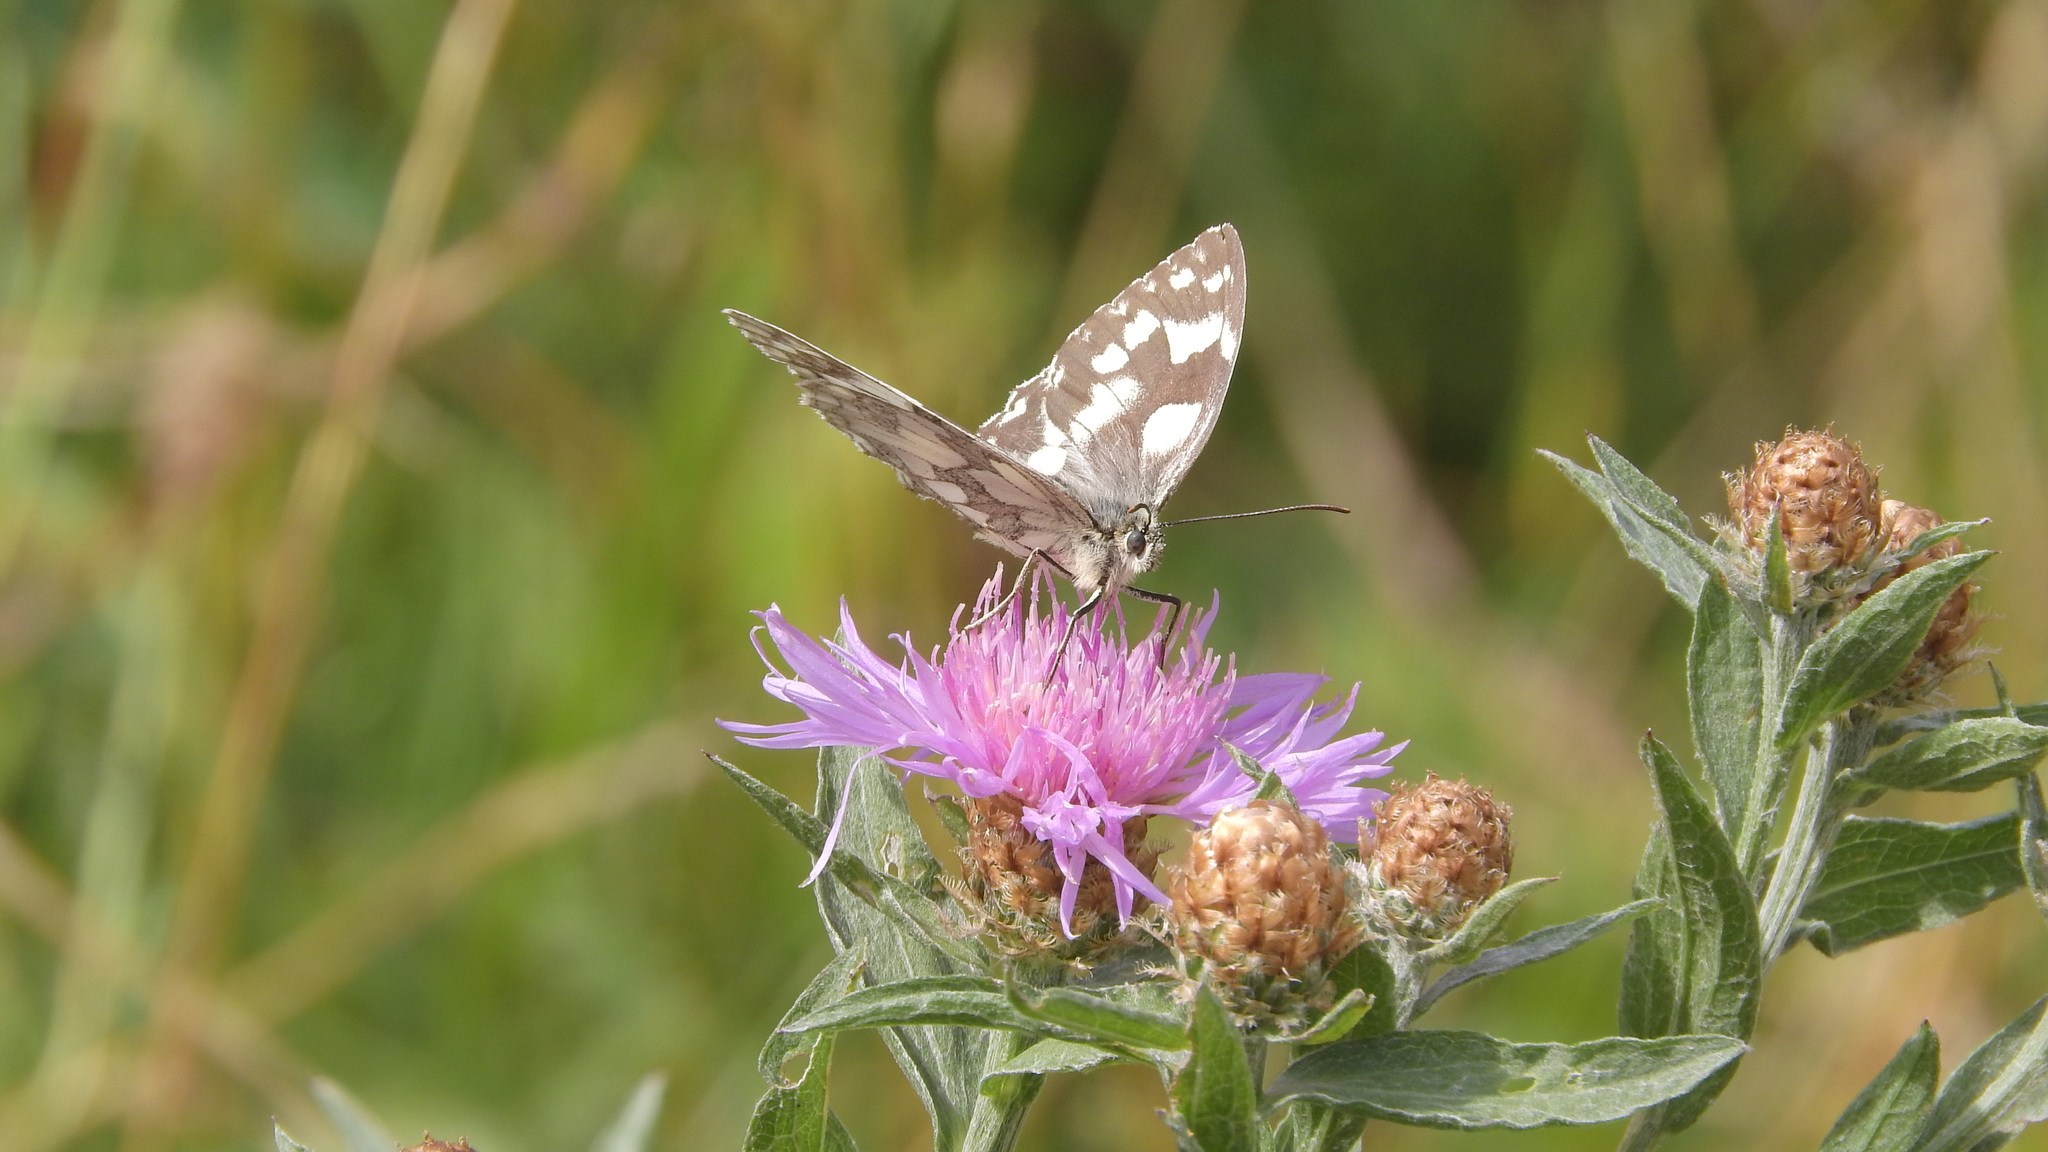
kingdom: Animalia
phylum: Arthropoda
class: Insecta
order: Lepidoptera
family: Nymphalidae
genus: Melanargia
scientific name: Melanargia galathea
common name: Marbled white
